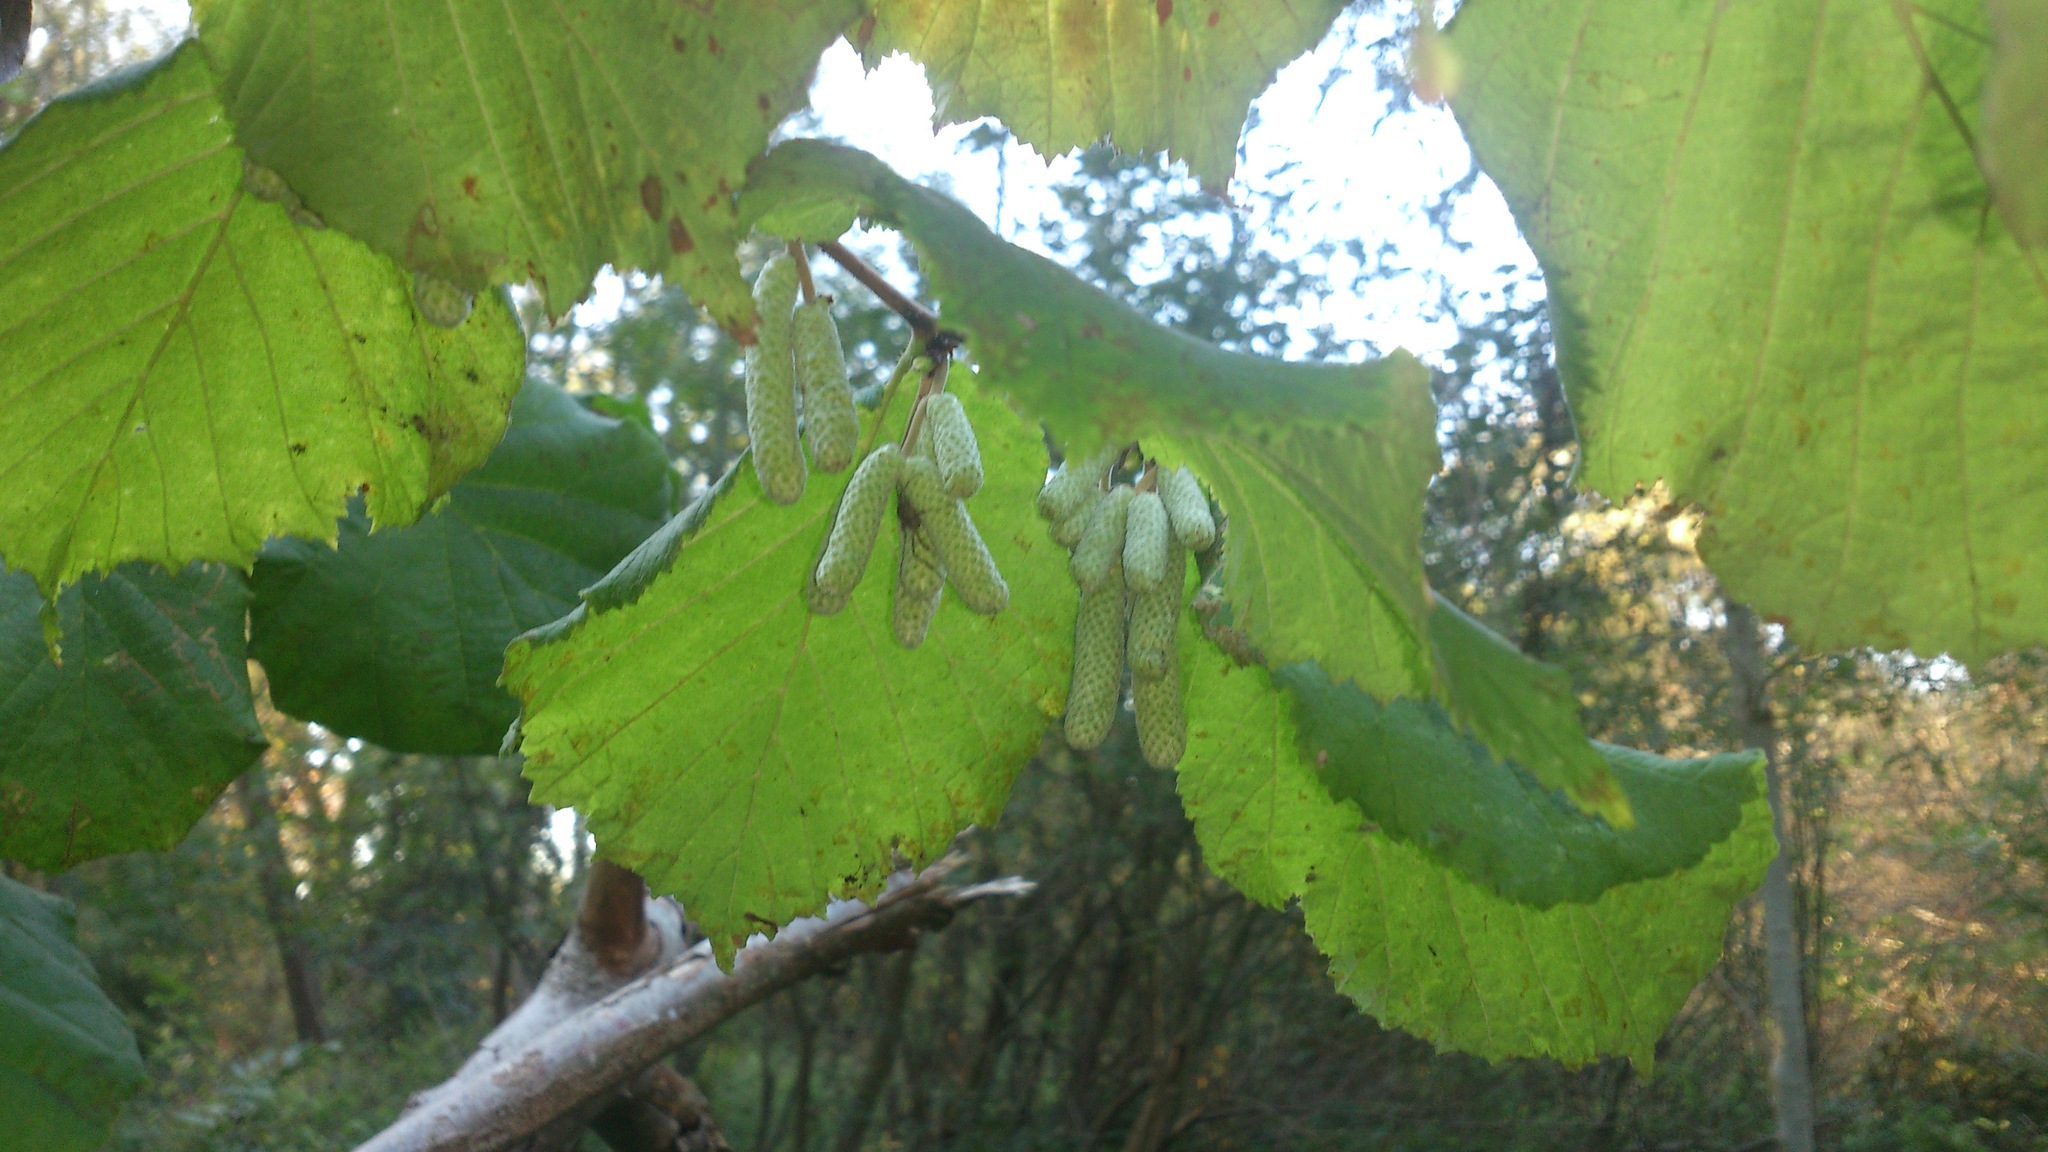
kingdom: Plantae
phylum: Tracheophyta
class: Magnoliopsida
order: Fagales
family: Betulaceae
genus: Corylus
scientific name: Corylus avellana
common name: European hazel
